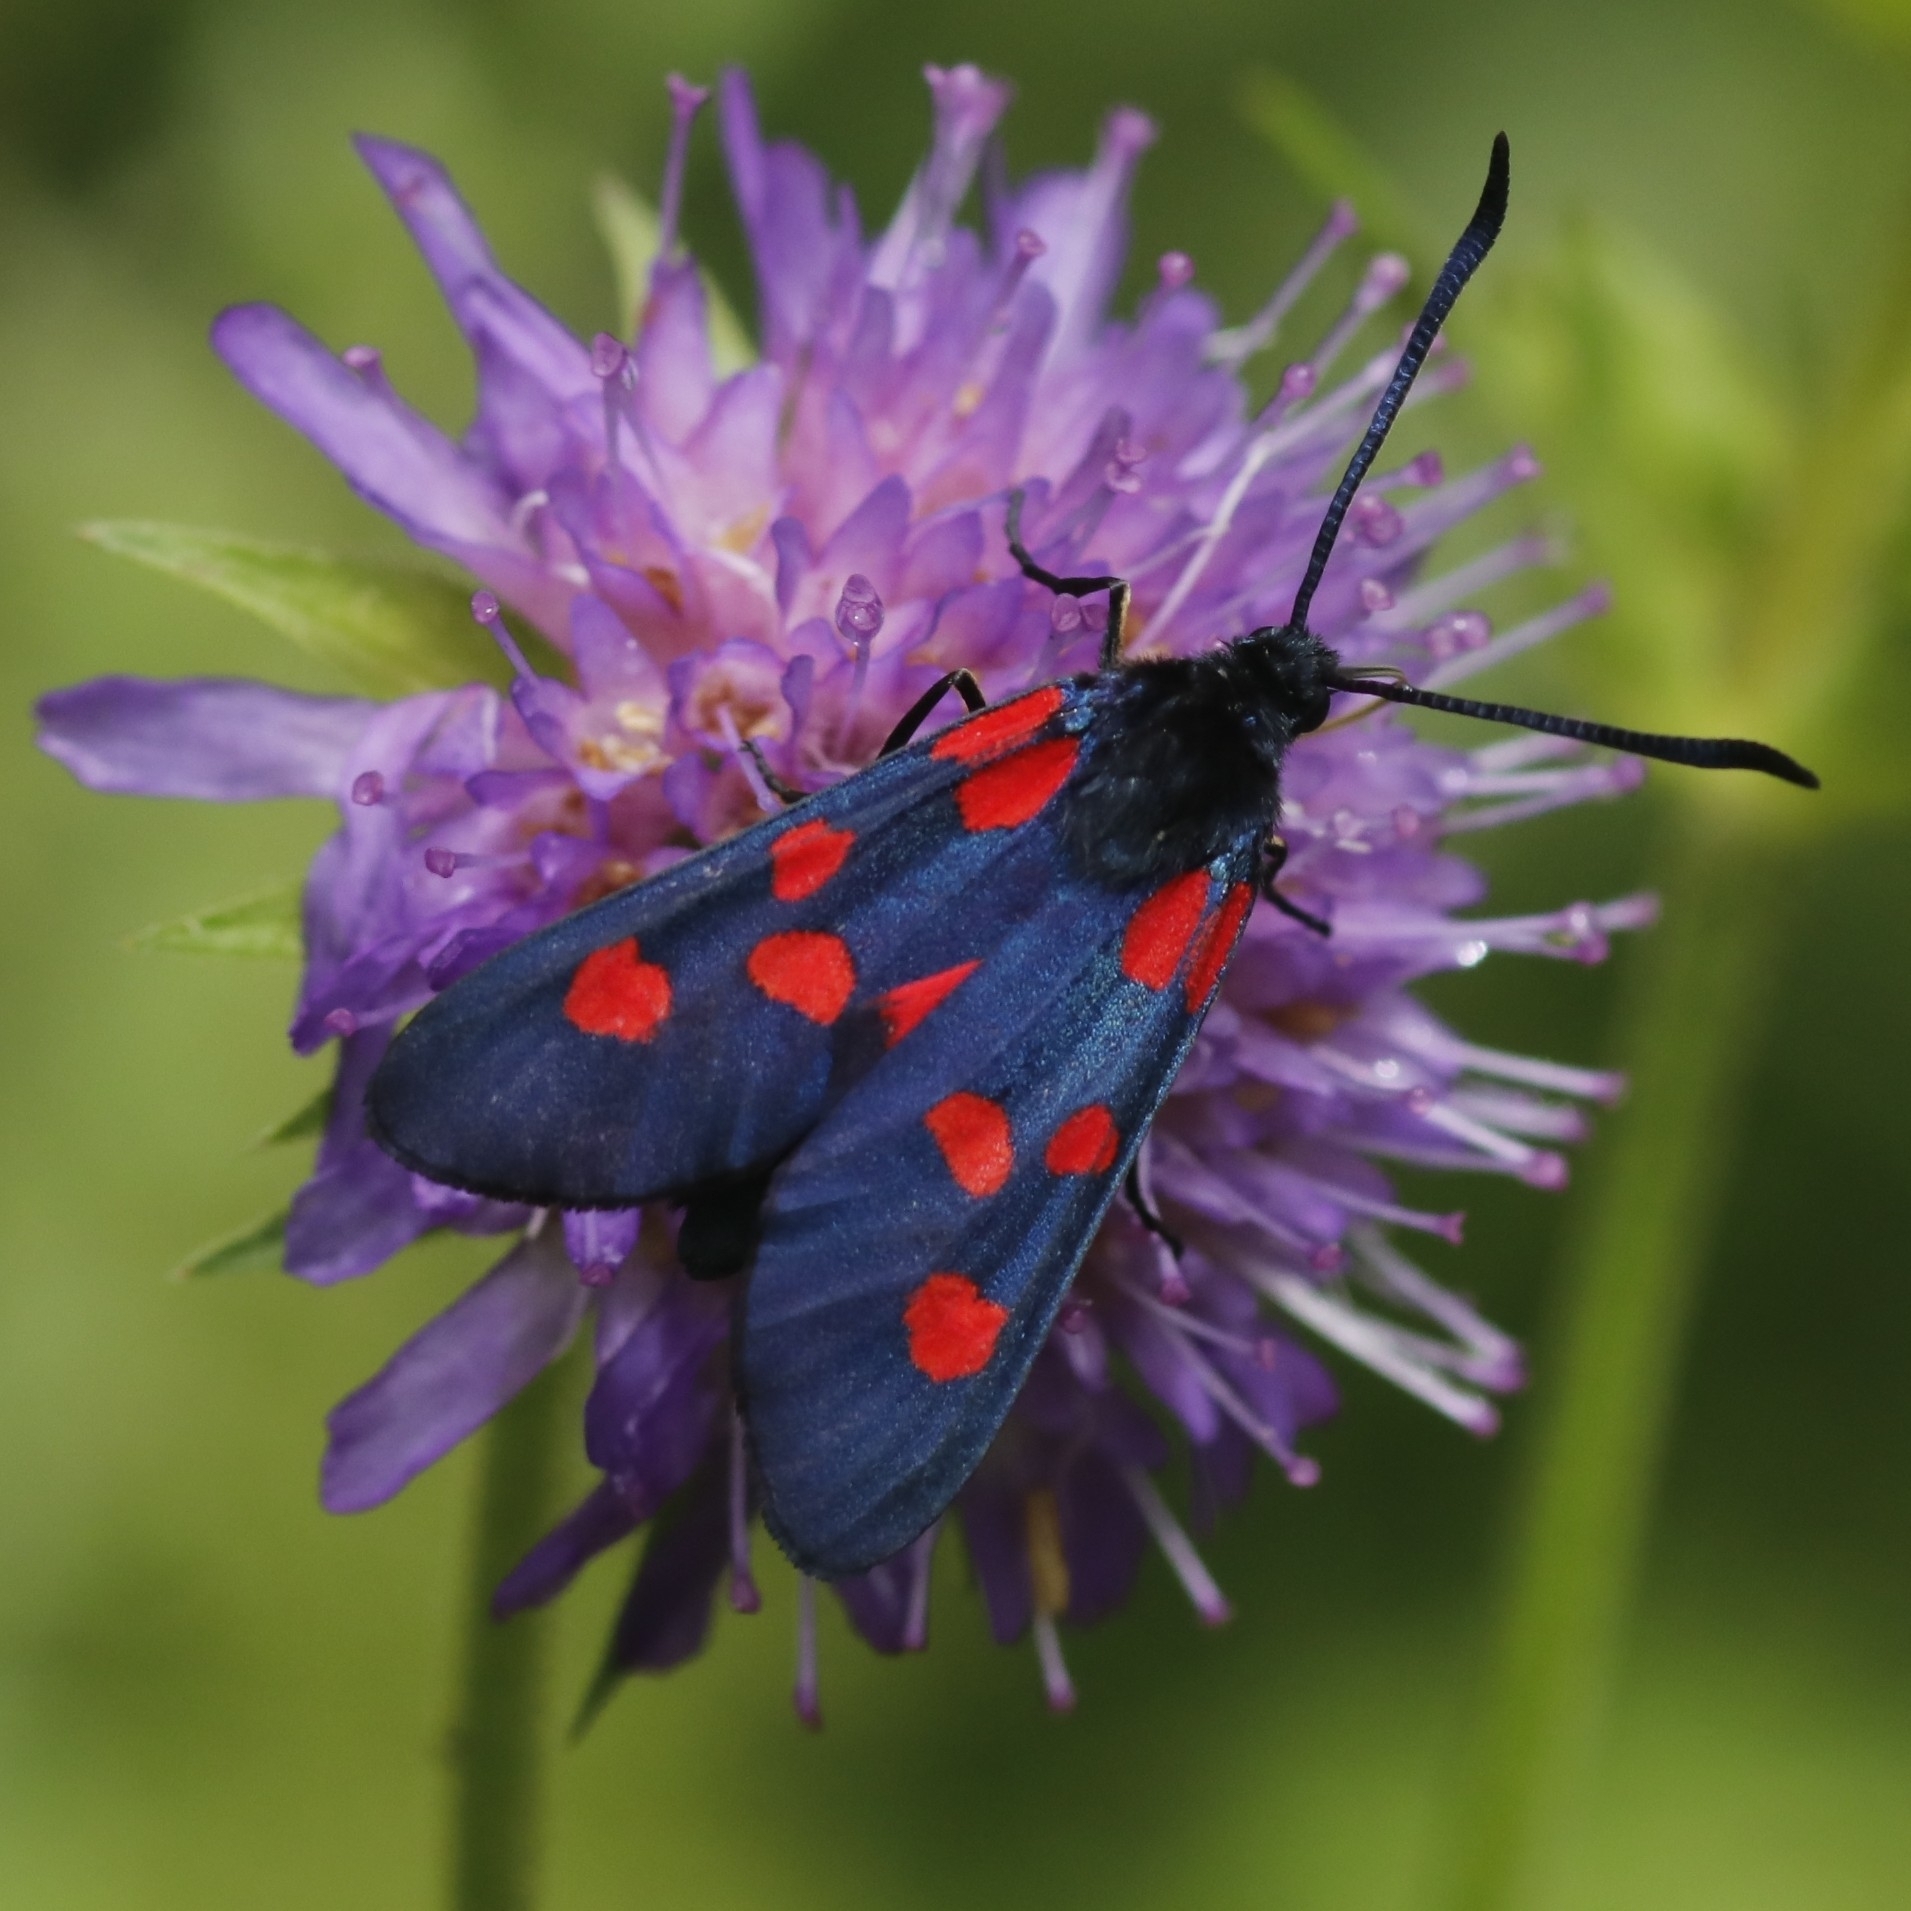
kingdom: Animalia
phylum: Arthropoda
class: Insecta
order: Lepidoptera
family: Zygaenidae
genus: Zygaena
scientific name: Zygaena lonicerae
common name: Narrow-bordered five-spot burnet
